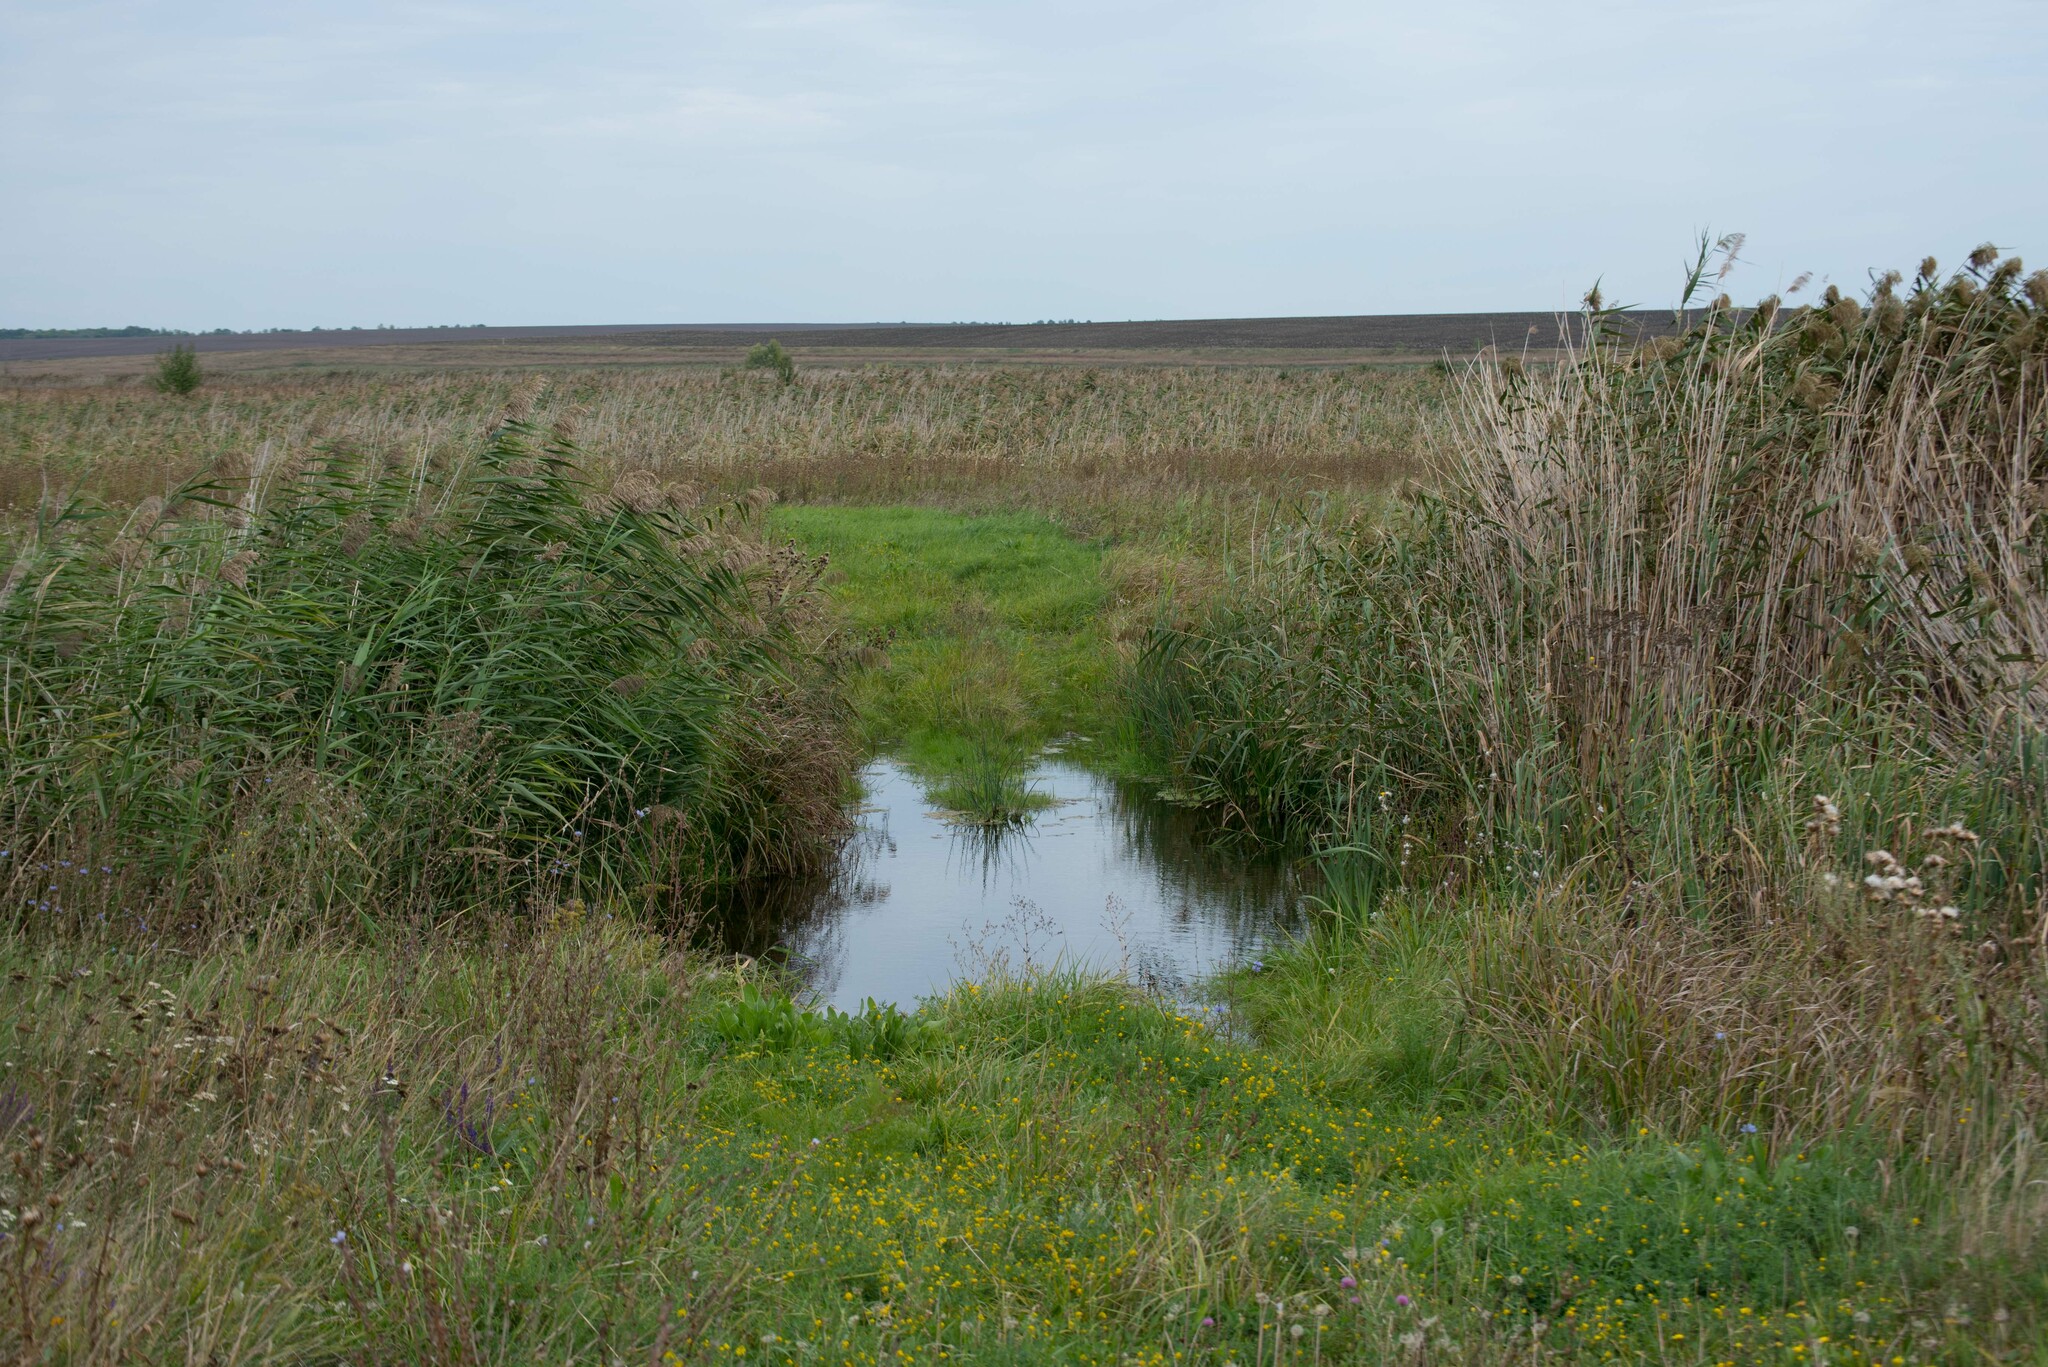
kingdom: Plantae
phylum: Tracheophyta
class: Liliopsida
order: Poales
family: Poaceae
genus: Phragmites
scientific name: Phragmites australis
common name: Common reed
